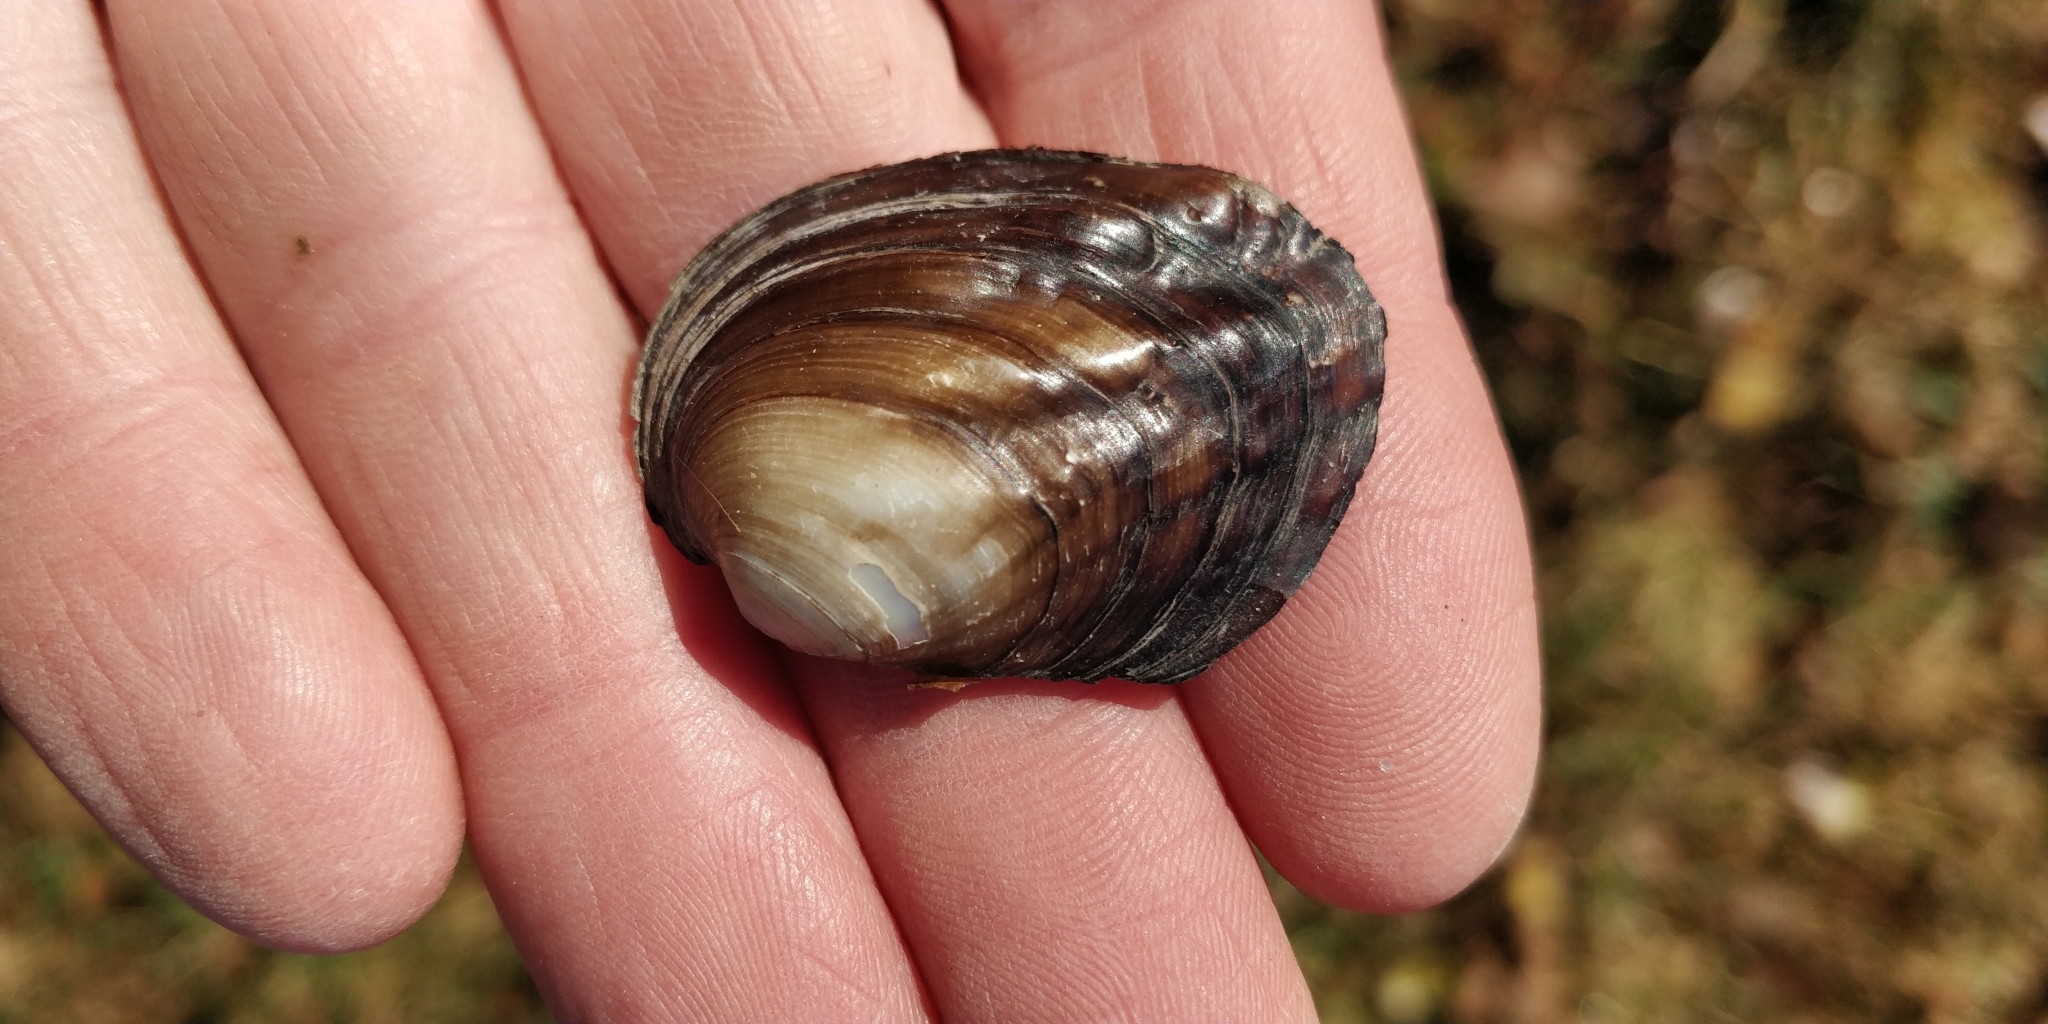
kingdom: Animalia
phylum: Mollusca
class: Bivalvia
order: Unionida
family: Unionidae
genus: Amblema
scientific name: Amblema plicata
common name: Threeridge
